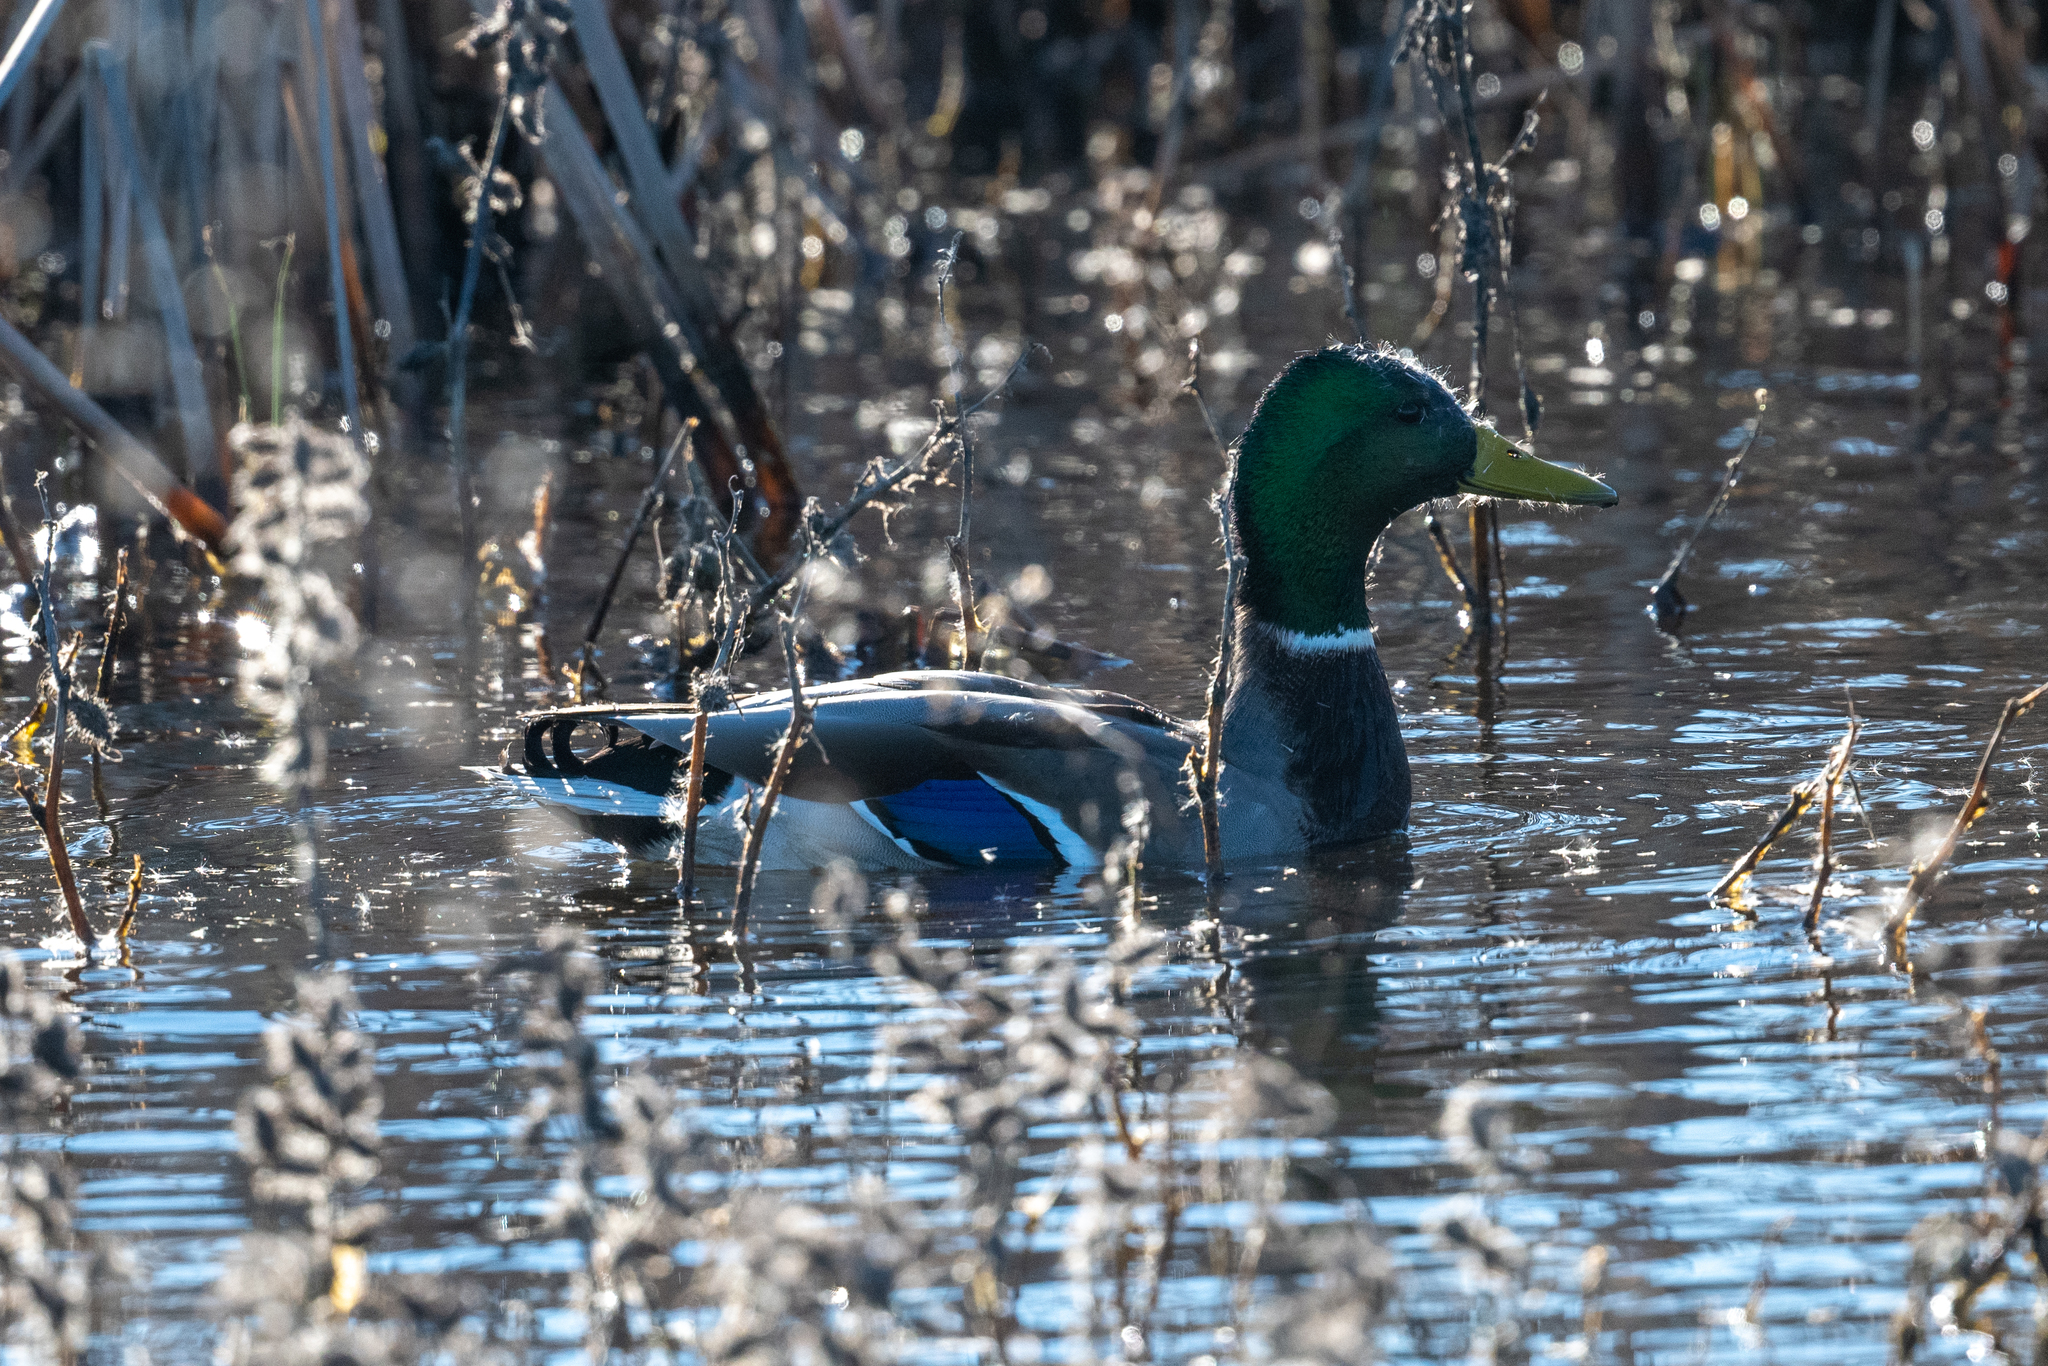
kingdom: Animalia
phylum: Chordata
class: Aves
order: Anseriformes
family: Anatidae
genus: Anas
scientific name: Anas platyrhynchos
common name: Mallard
